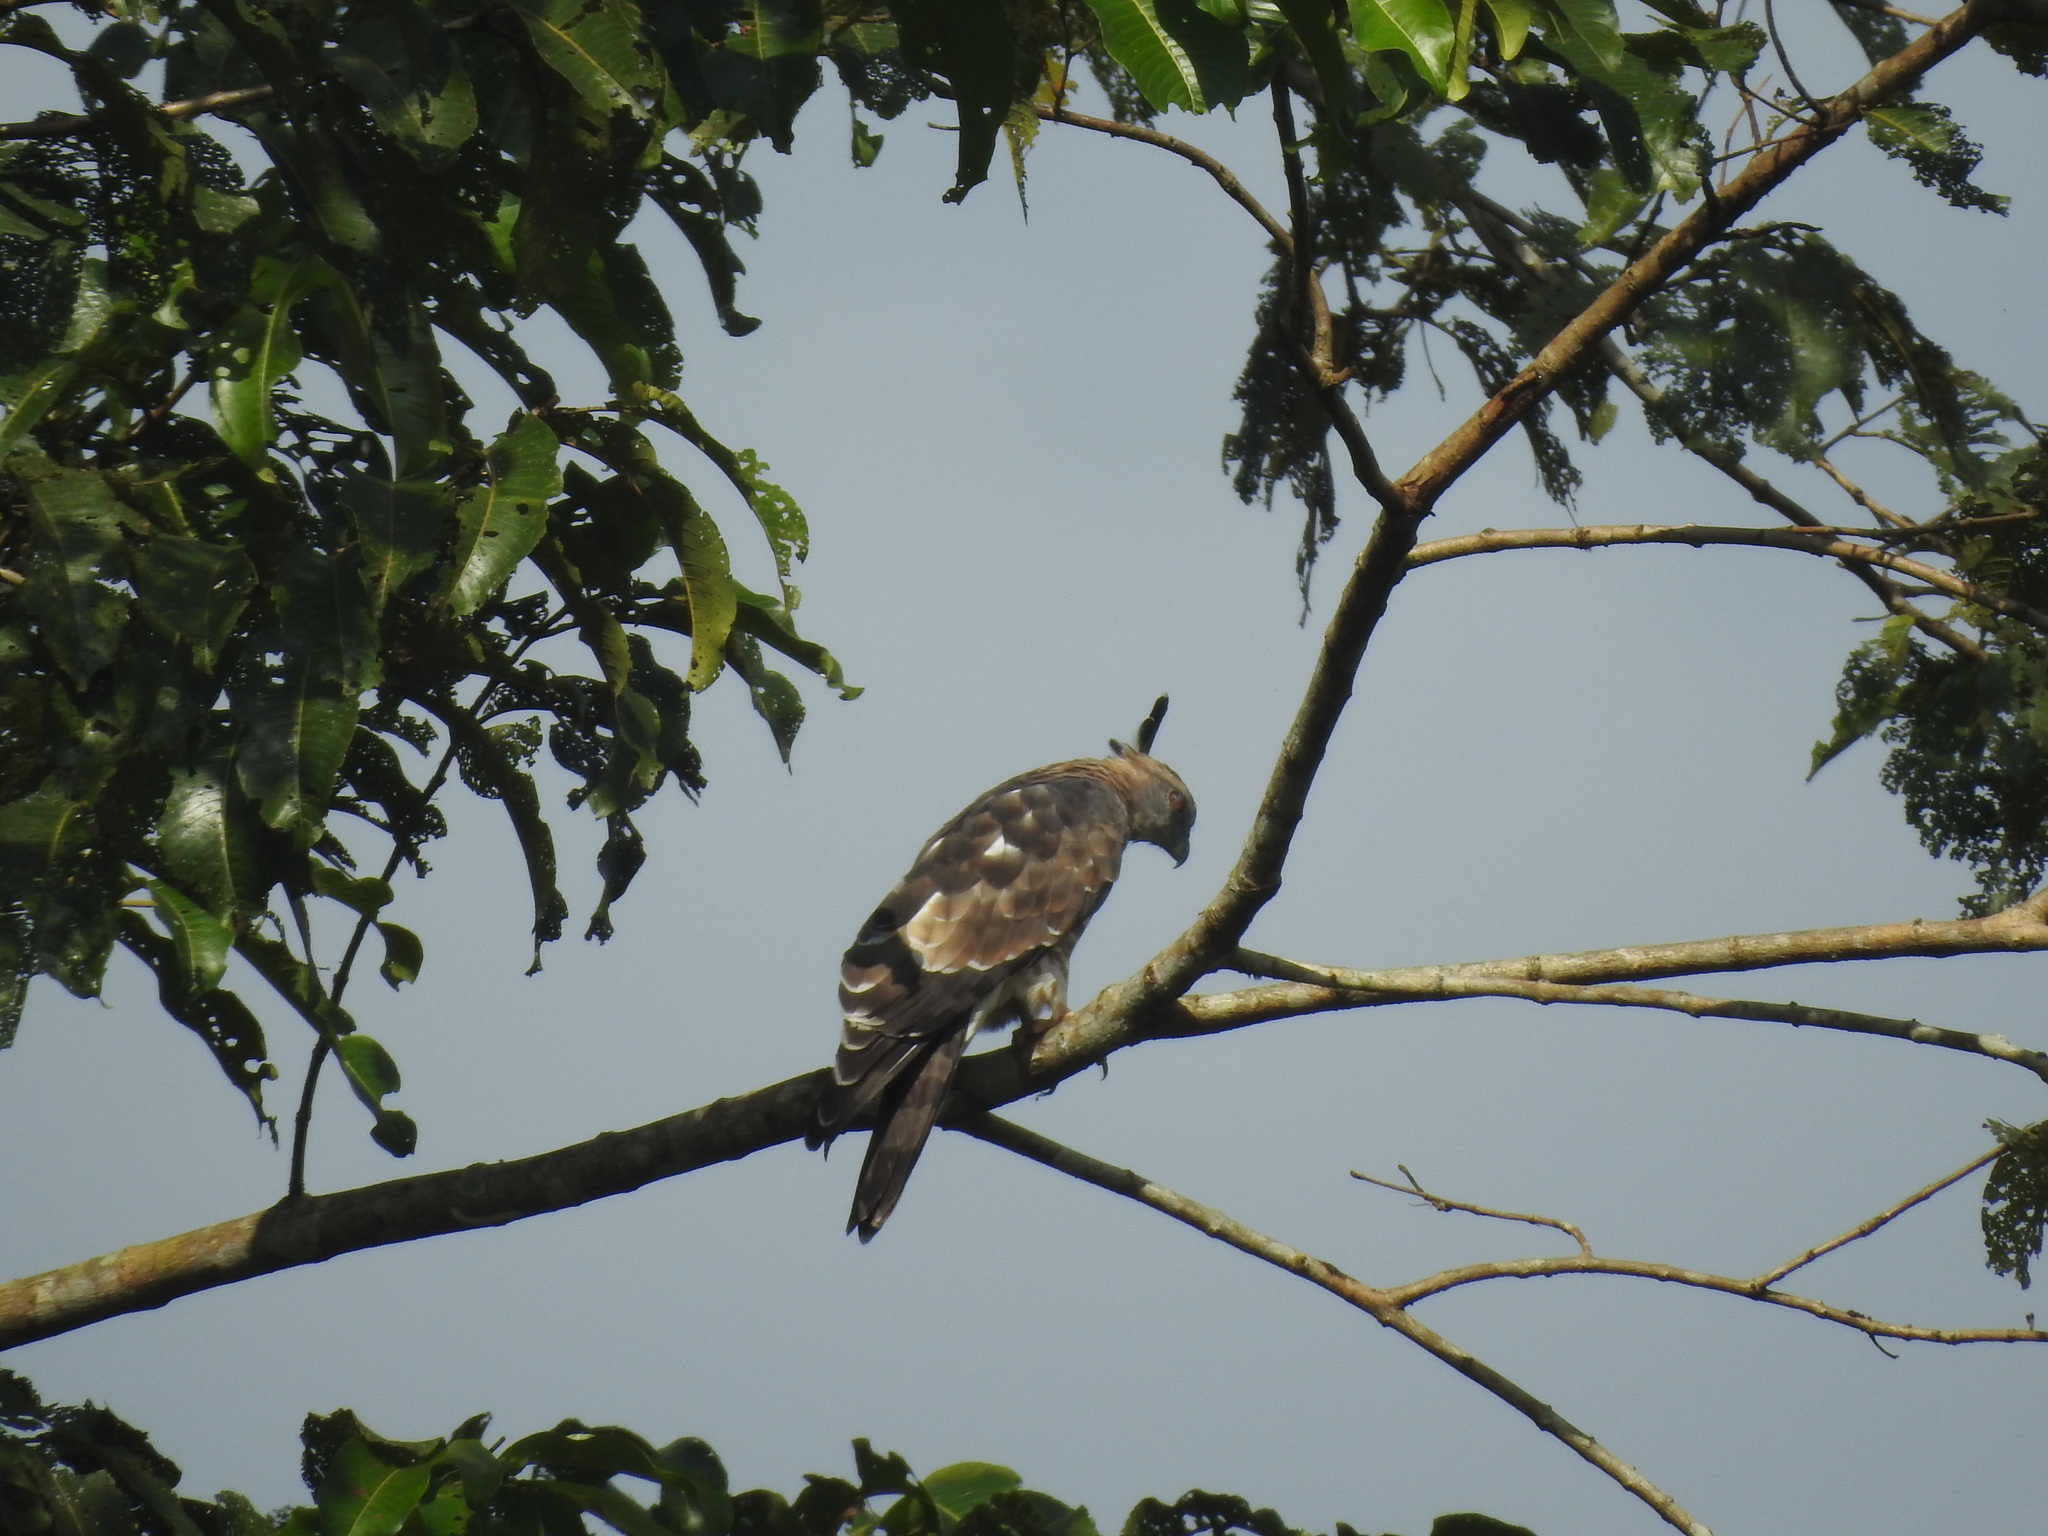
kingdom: Animalia
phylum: Chordata
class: Aves
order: Accipitriformes
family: Accipitridae
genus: Aviceda
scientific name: Aviceda jerdoni
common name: Jerdon's baza
